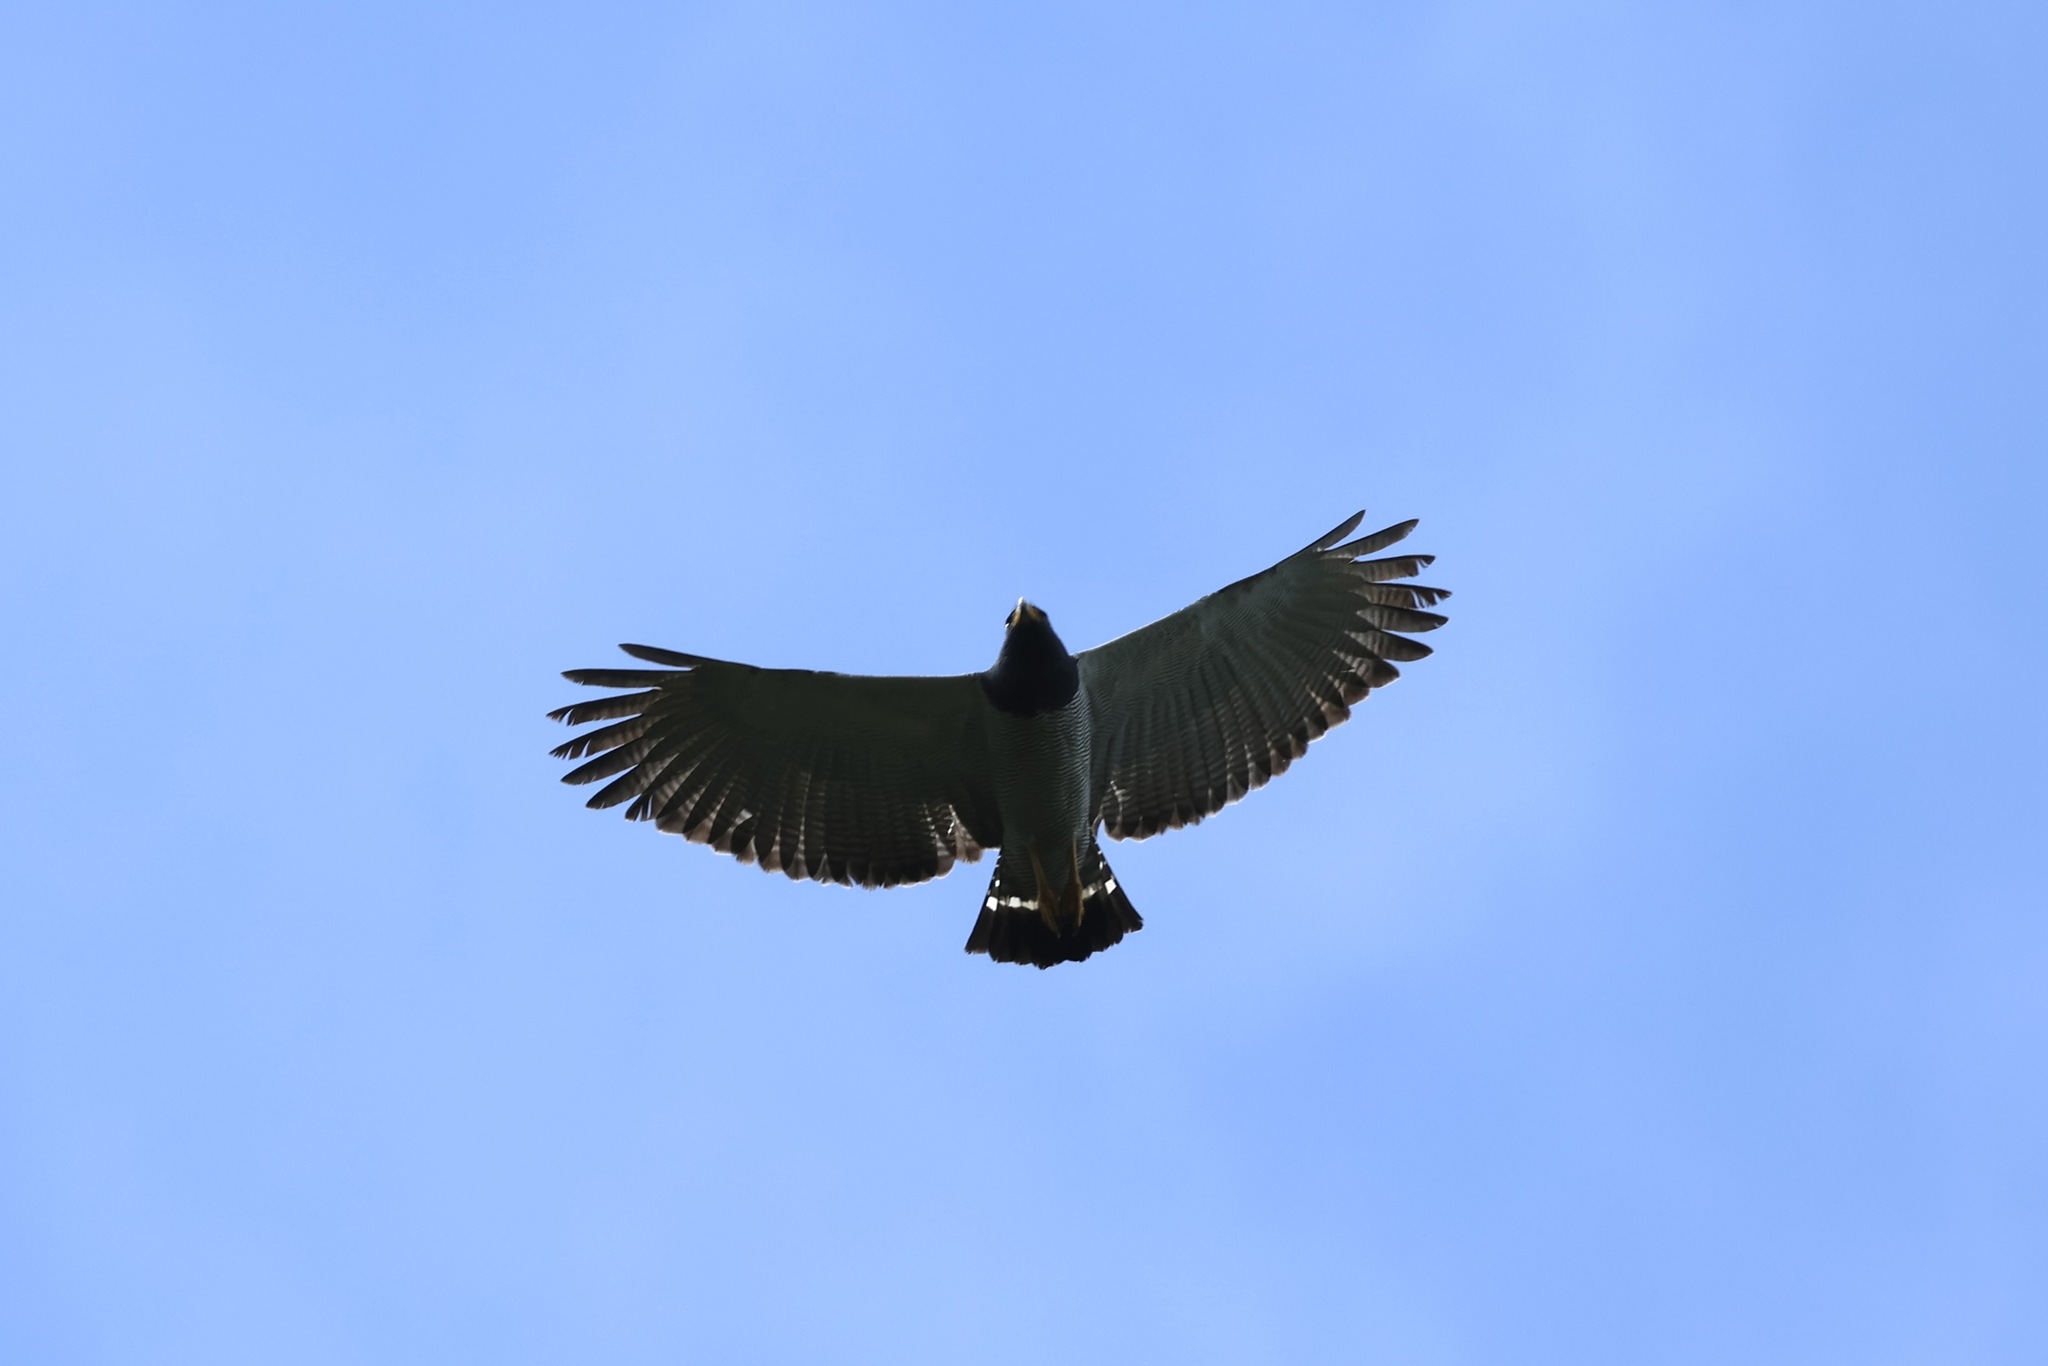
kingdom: Animalia
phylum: Chordata
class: Aves
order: Accipitriformes
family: Accipitridae
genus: Leucopternis
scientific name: Leucopternis princeps
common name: Barred hawk
